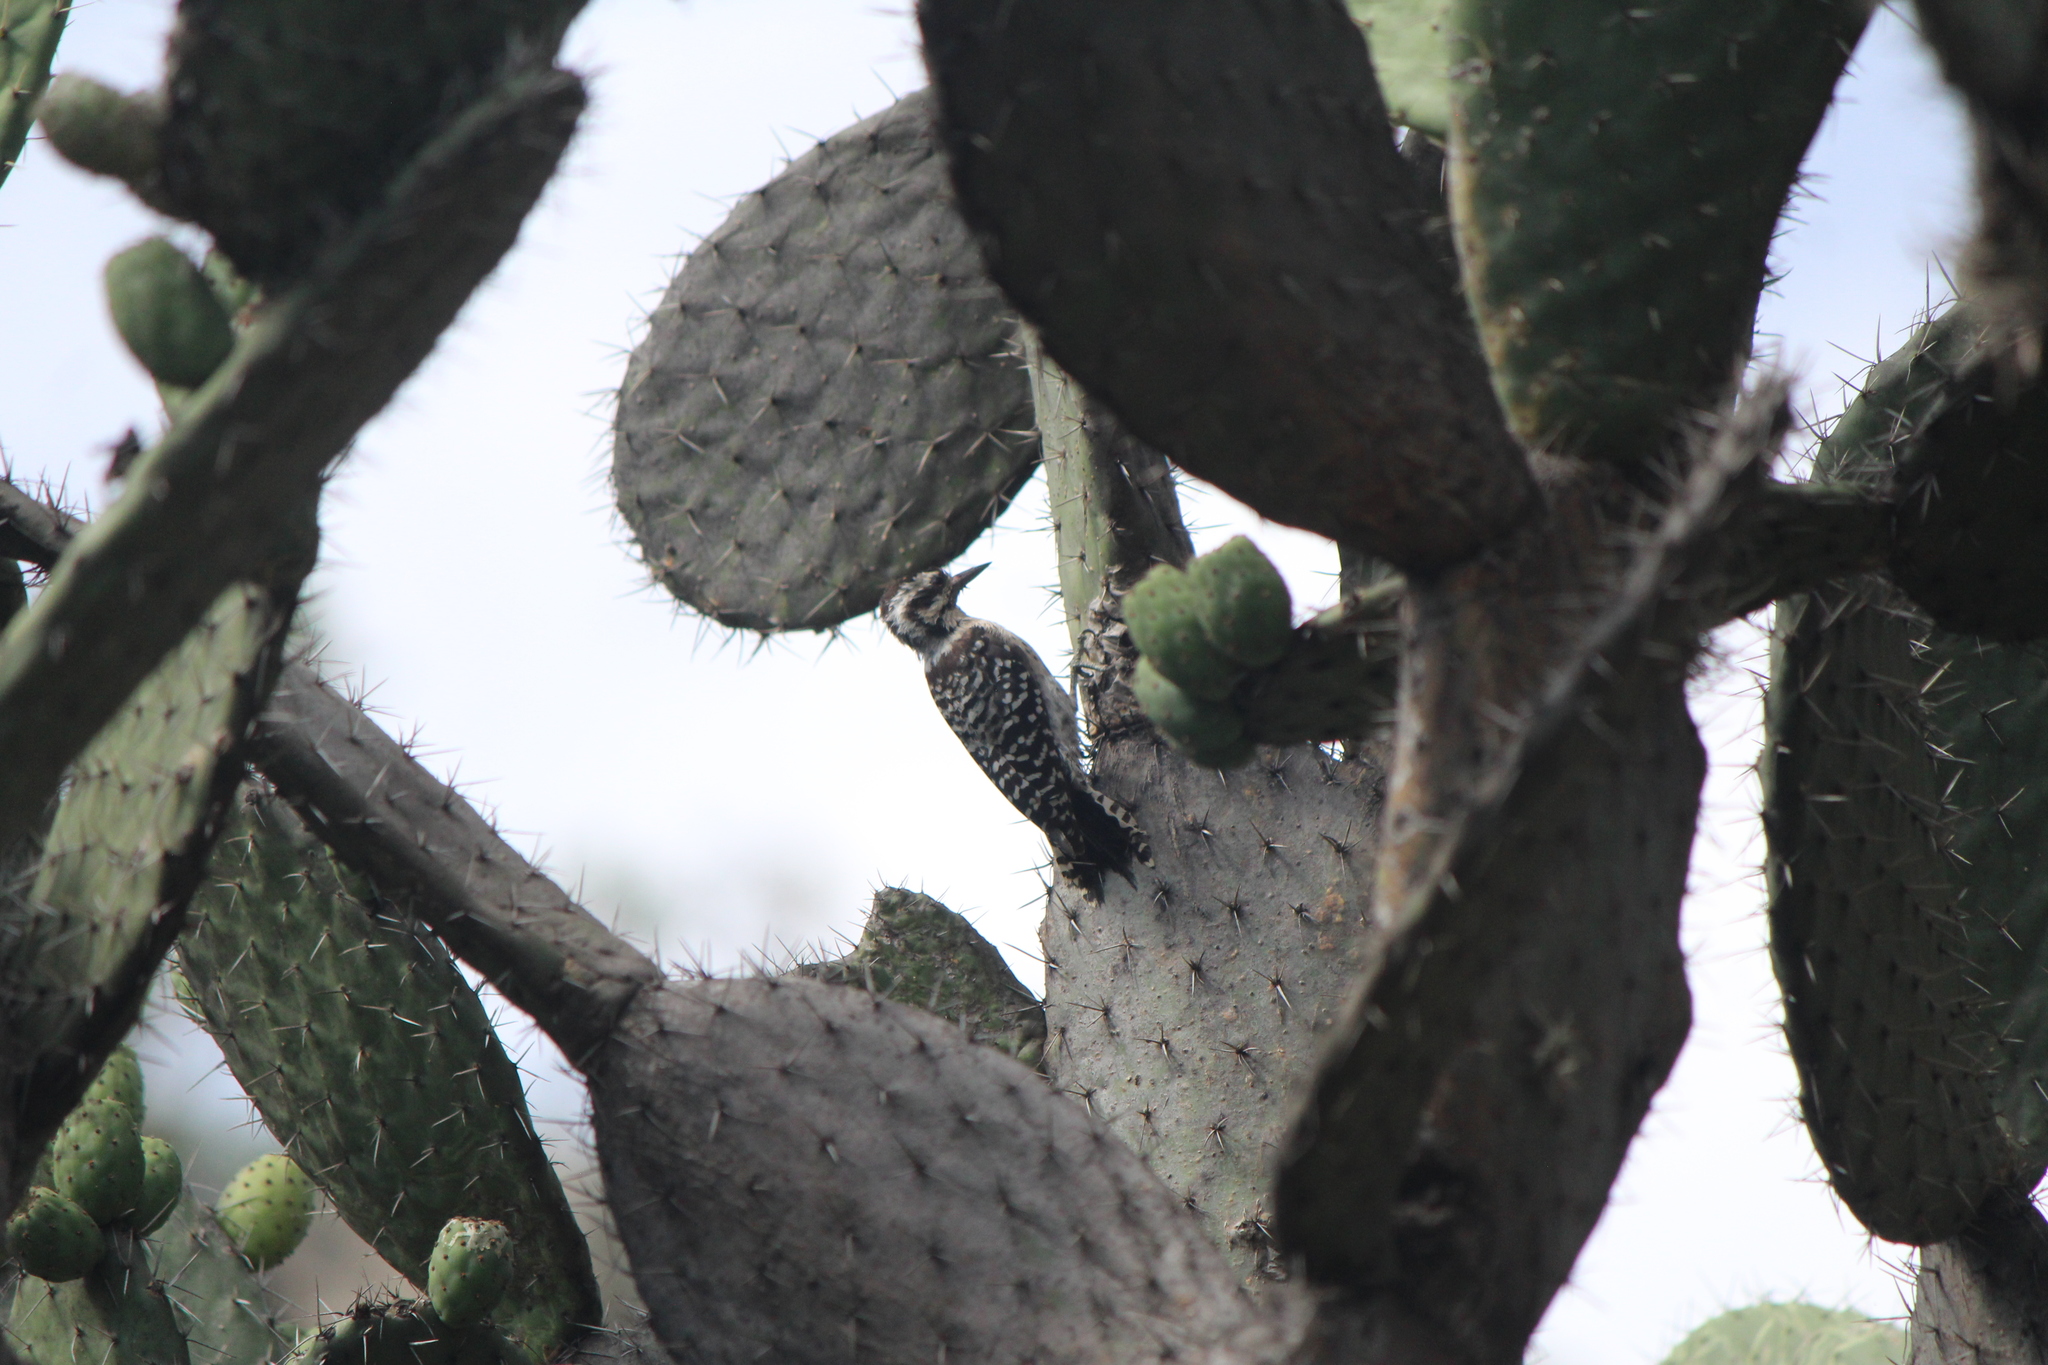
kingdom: Animalia
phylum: Chordata
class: Aves
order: Piciformes
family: Picidae
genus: Dryobates
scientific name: Dryobates scalaris
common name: Ladder-backed woodpecker
